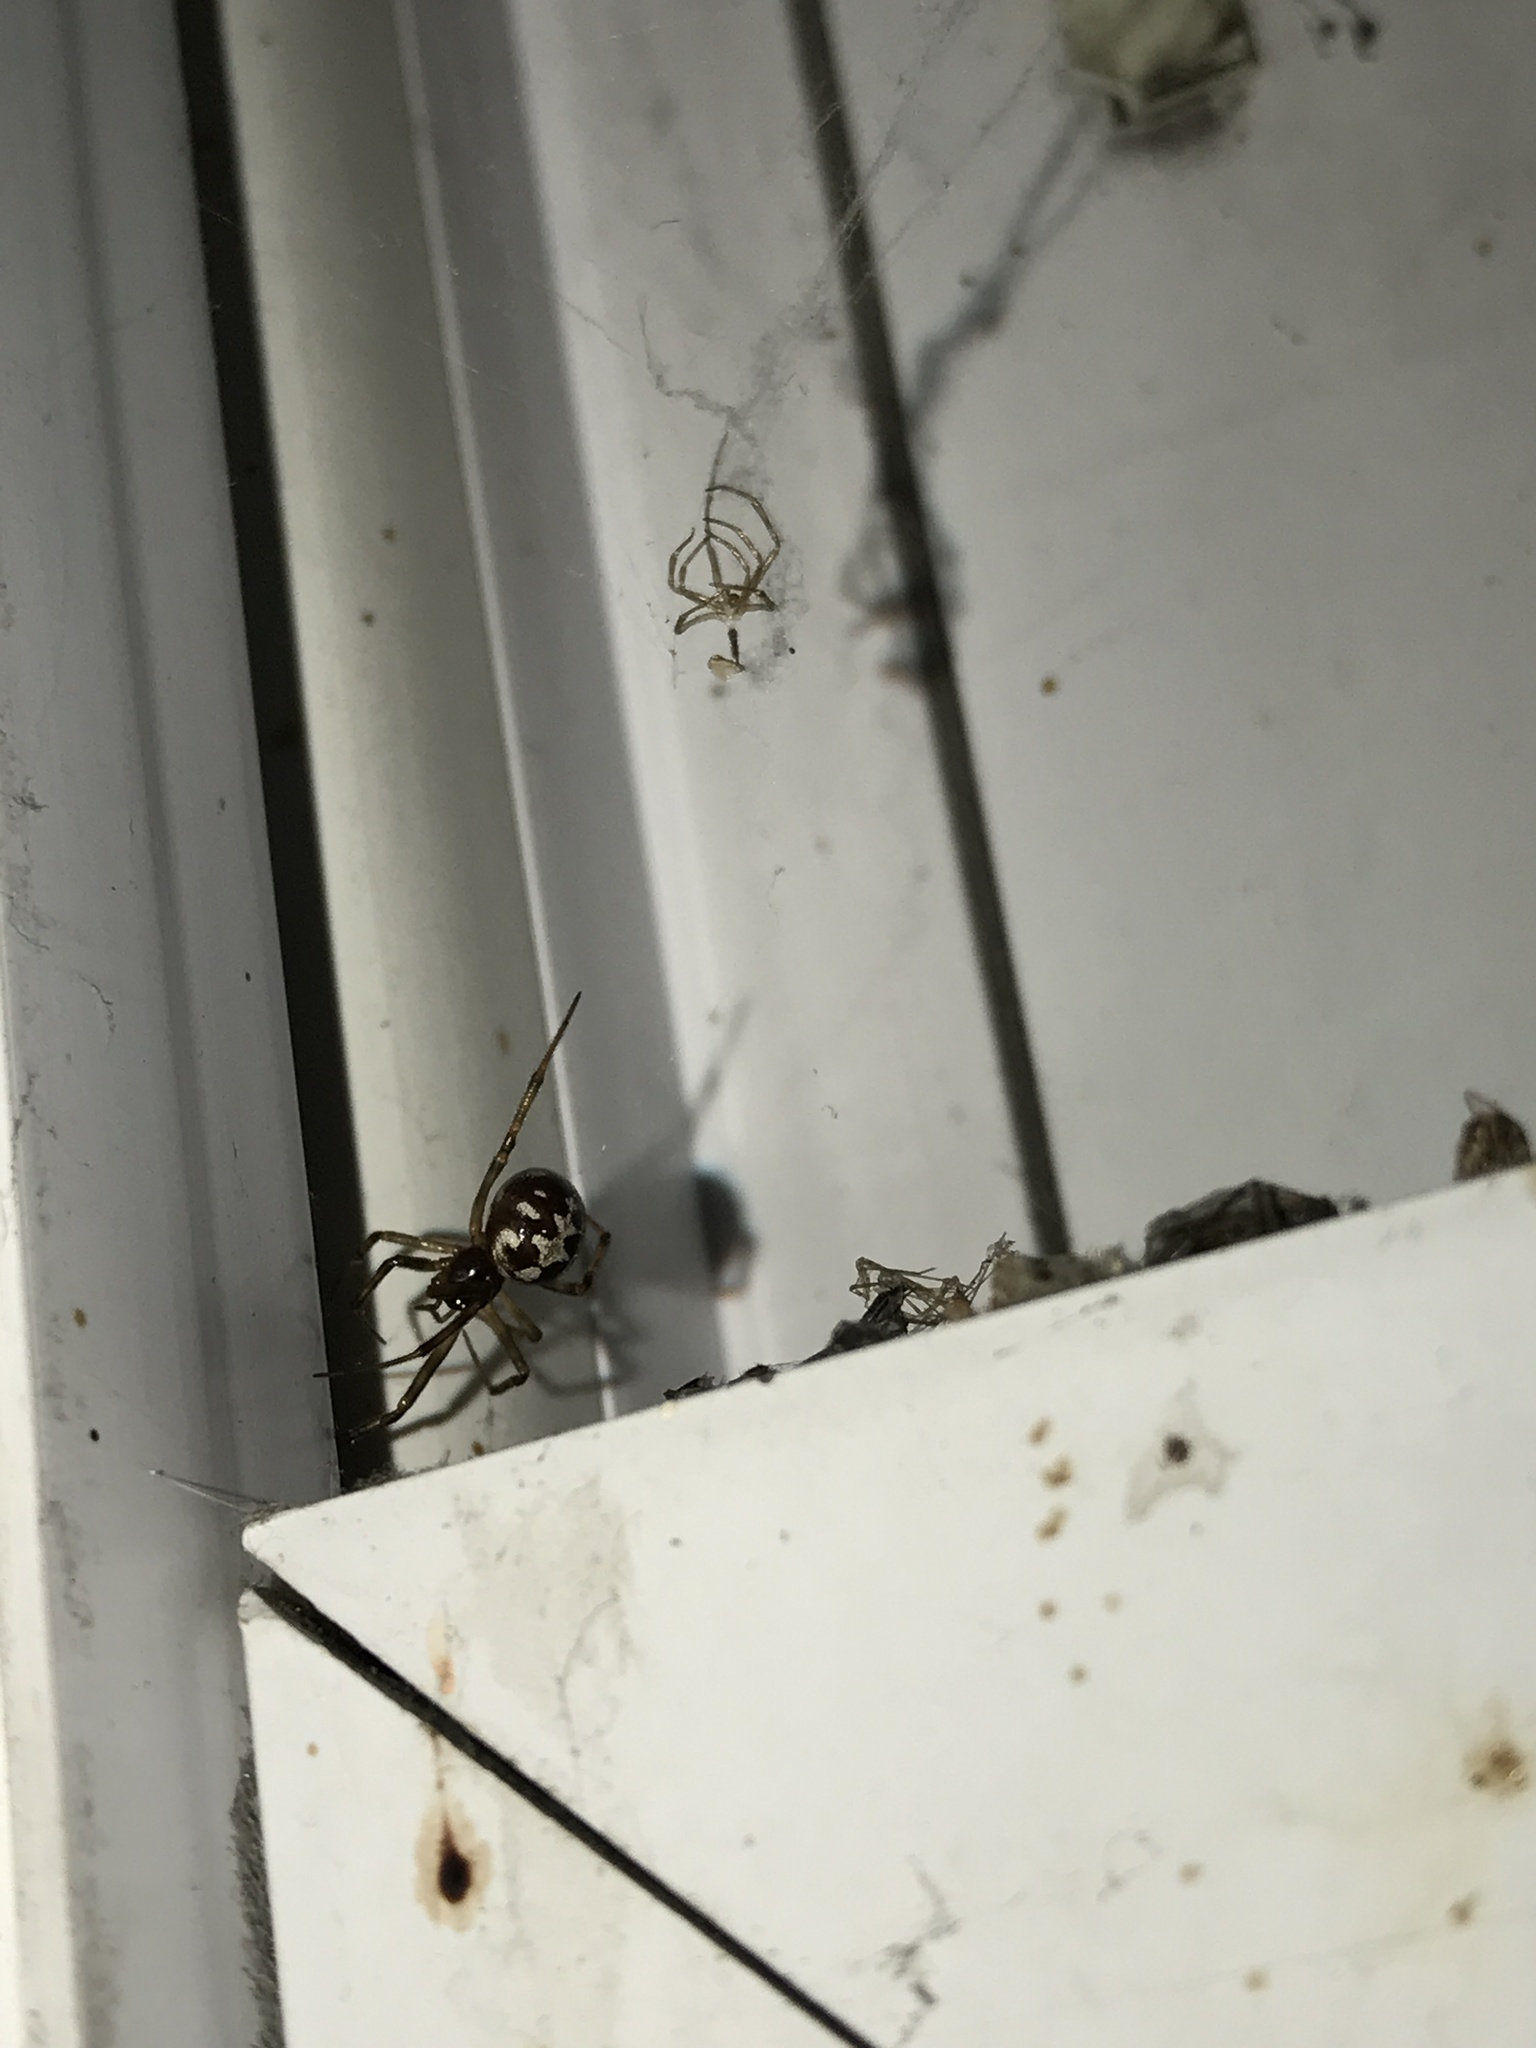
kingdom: Animalia
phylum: Arthropoda
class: Arachnida
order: Araneae
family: Theridiidae
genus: Steatoda
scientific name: Steatoda triangulosa
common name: Triangulate bud spider
